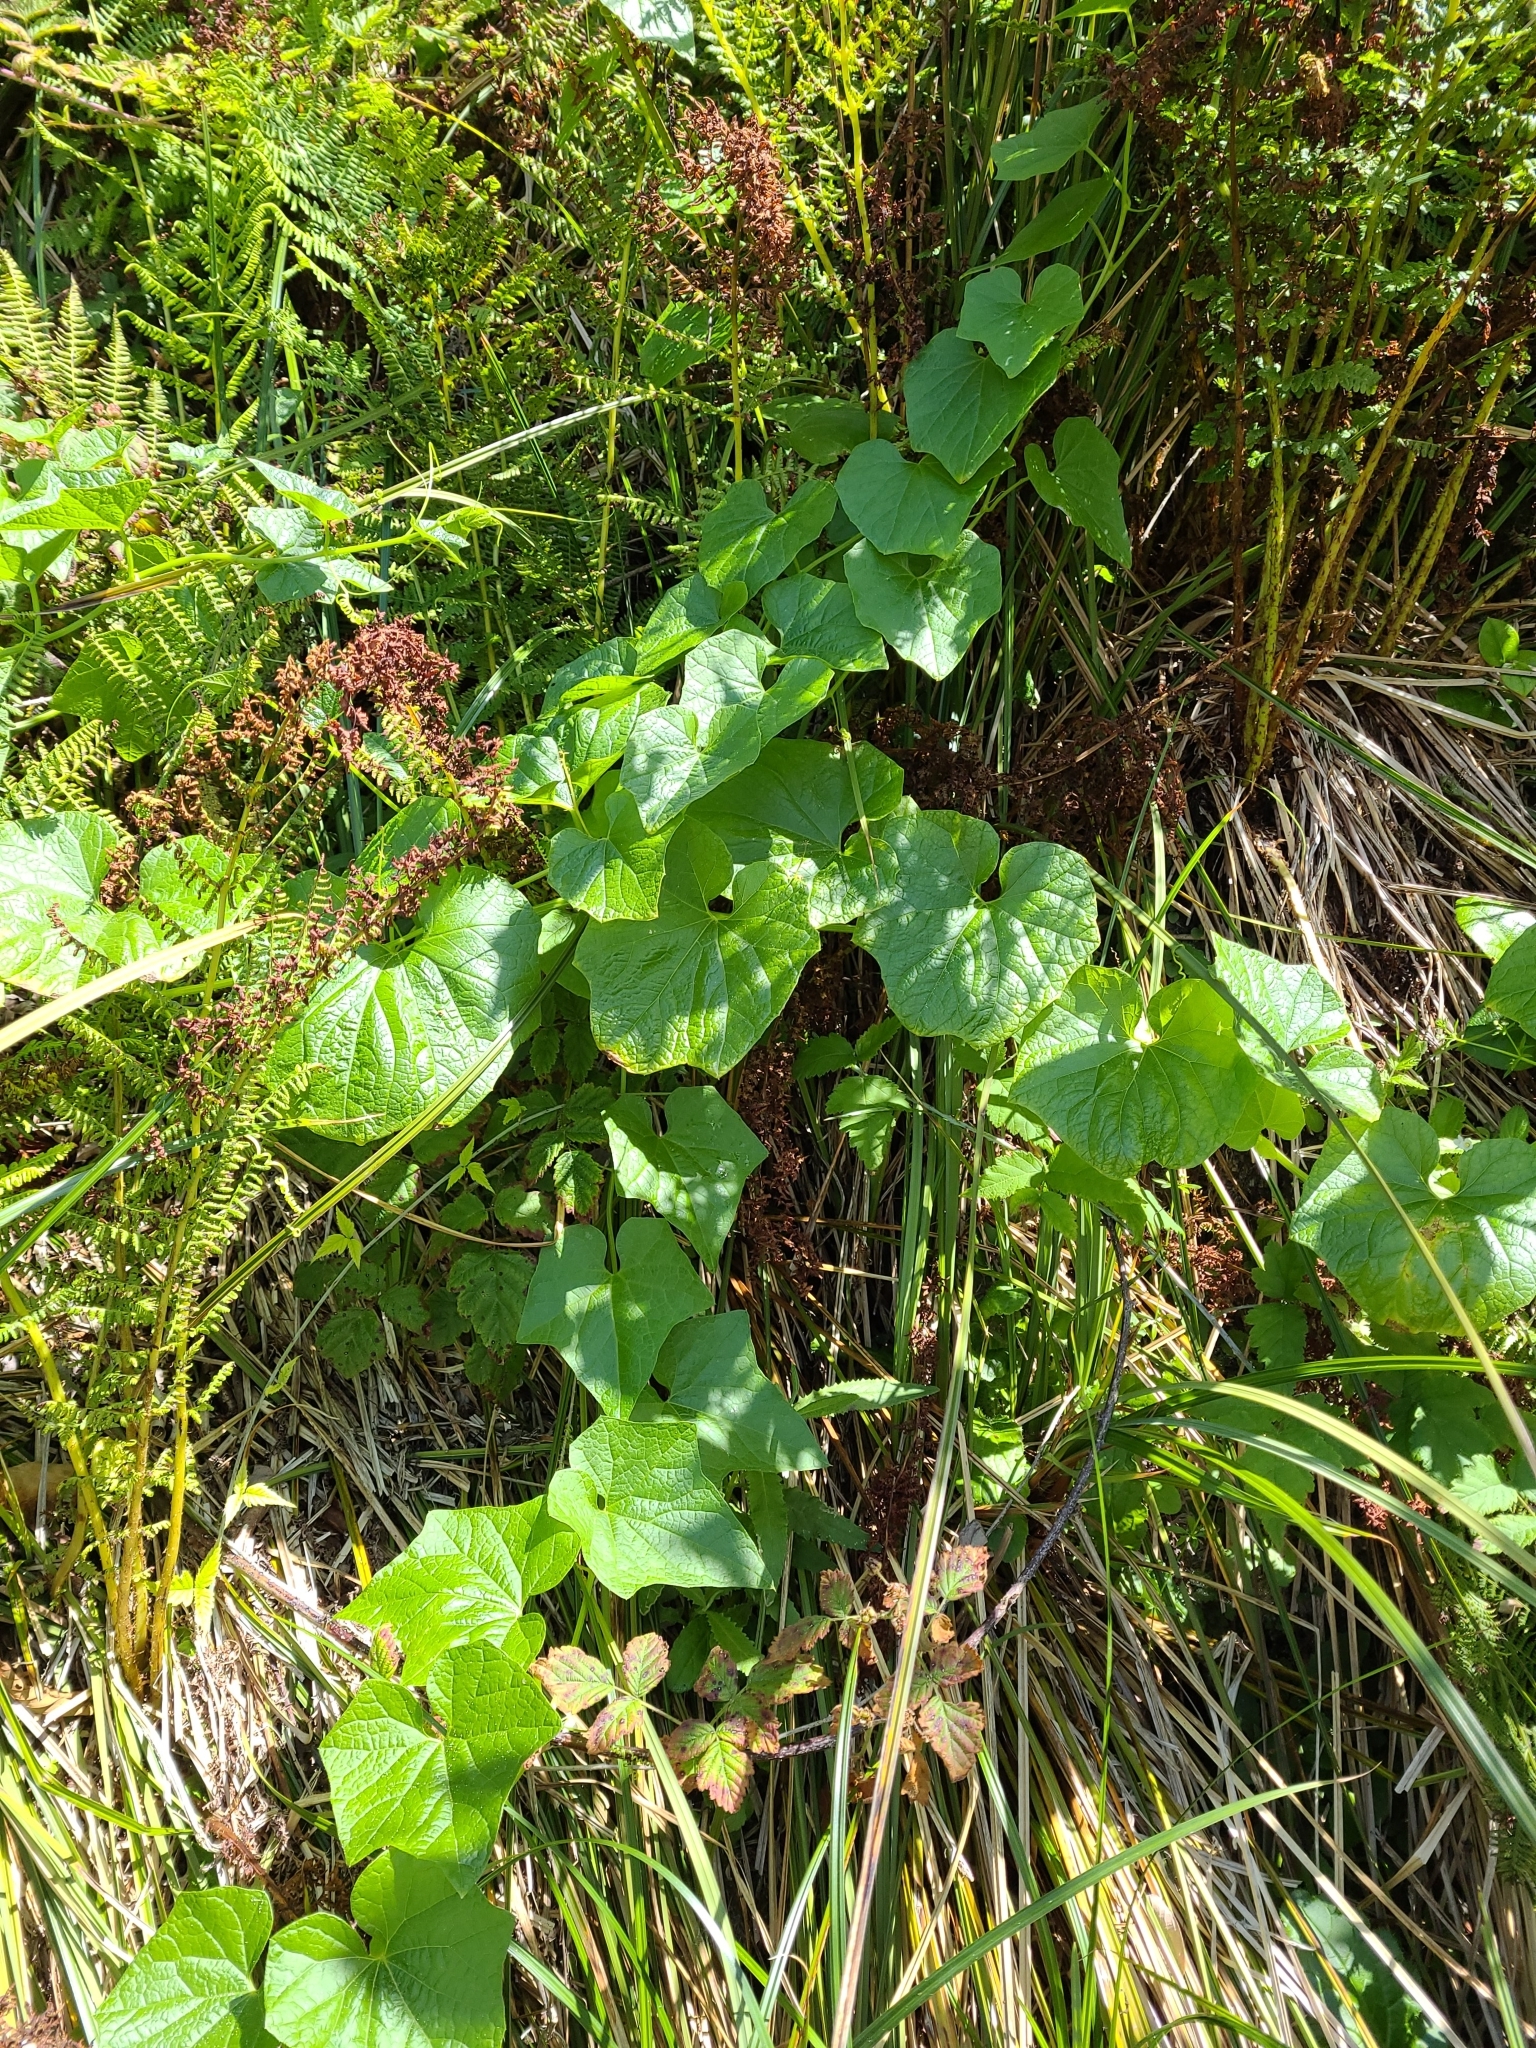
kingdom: Plantae
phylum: Tracheophyta
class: Magnoliopsida
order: Cucurbitales
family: Cucurbitaceae
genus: Marah
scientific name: Marah oregana
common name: Coastal manroot
